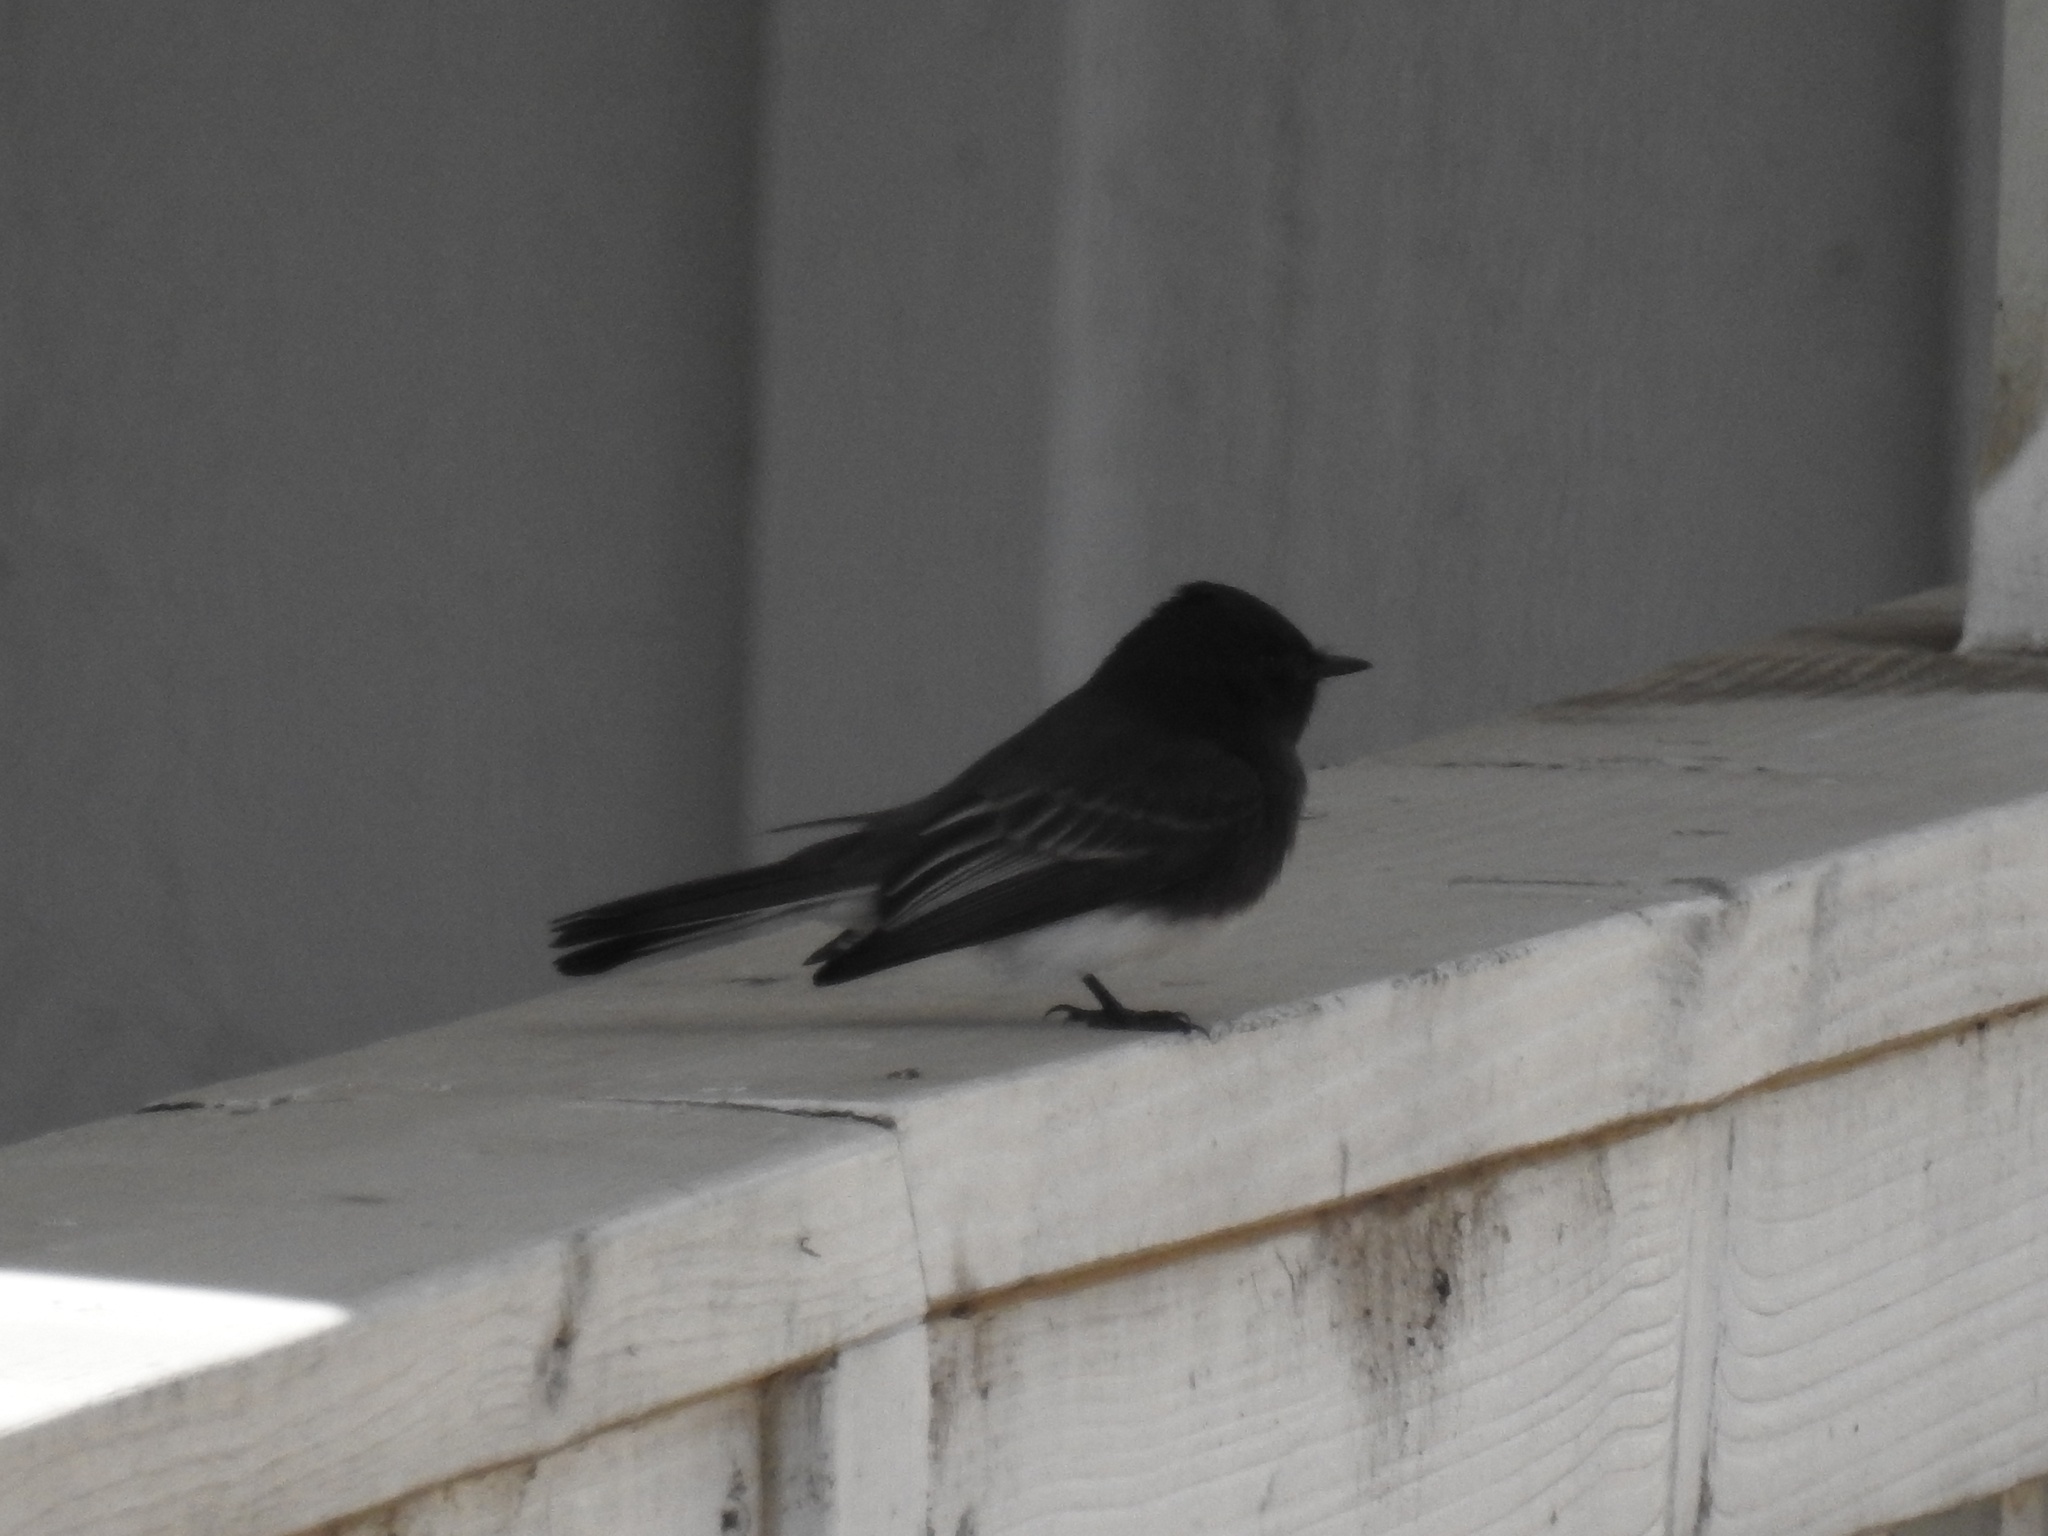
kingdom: Animalia
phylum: Chordata
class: Aves
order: Passeriformes
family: Tyrannidae
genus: Sayornis
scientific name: Sayornis nigricans
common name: Black phoebe
